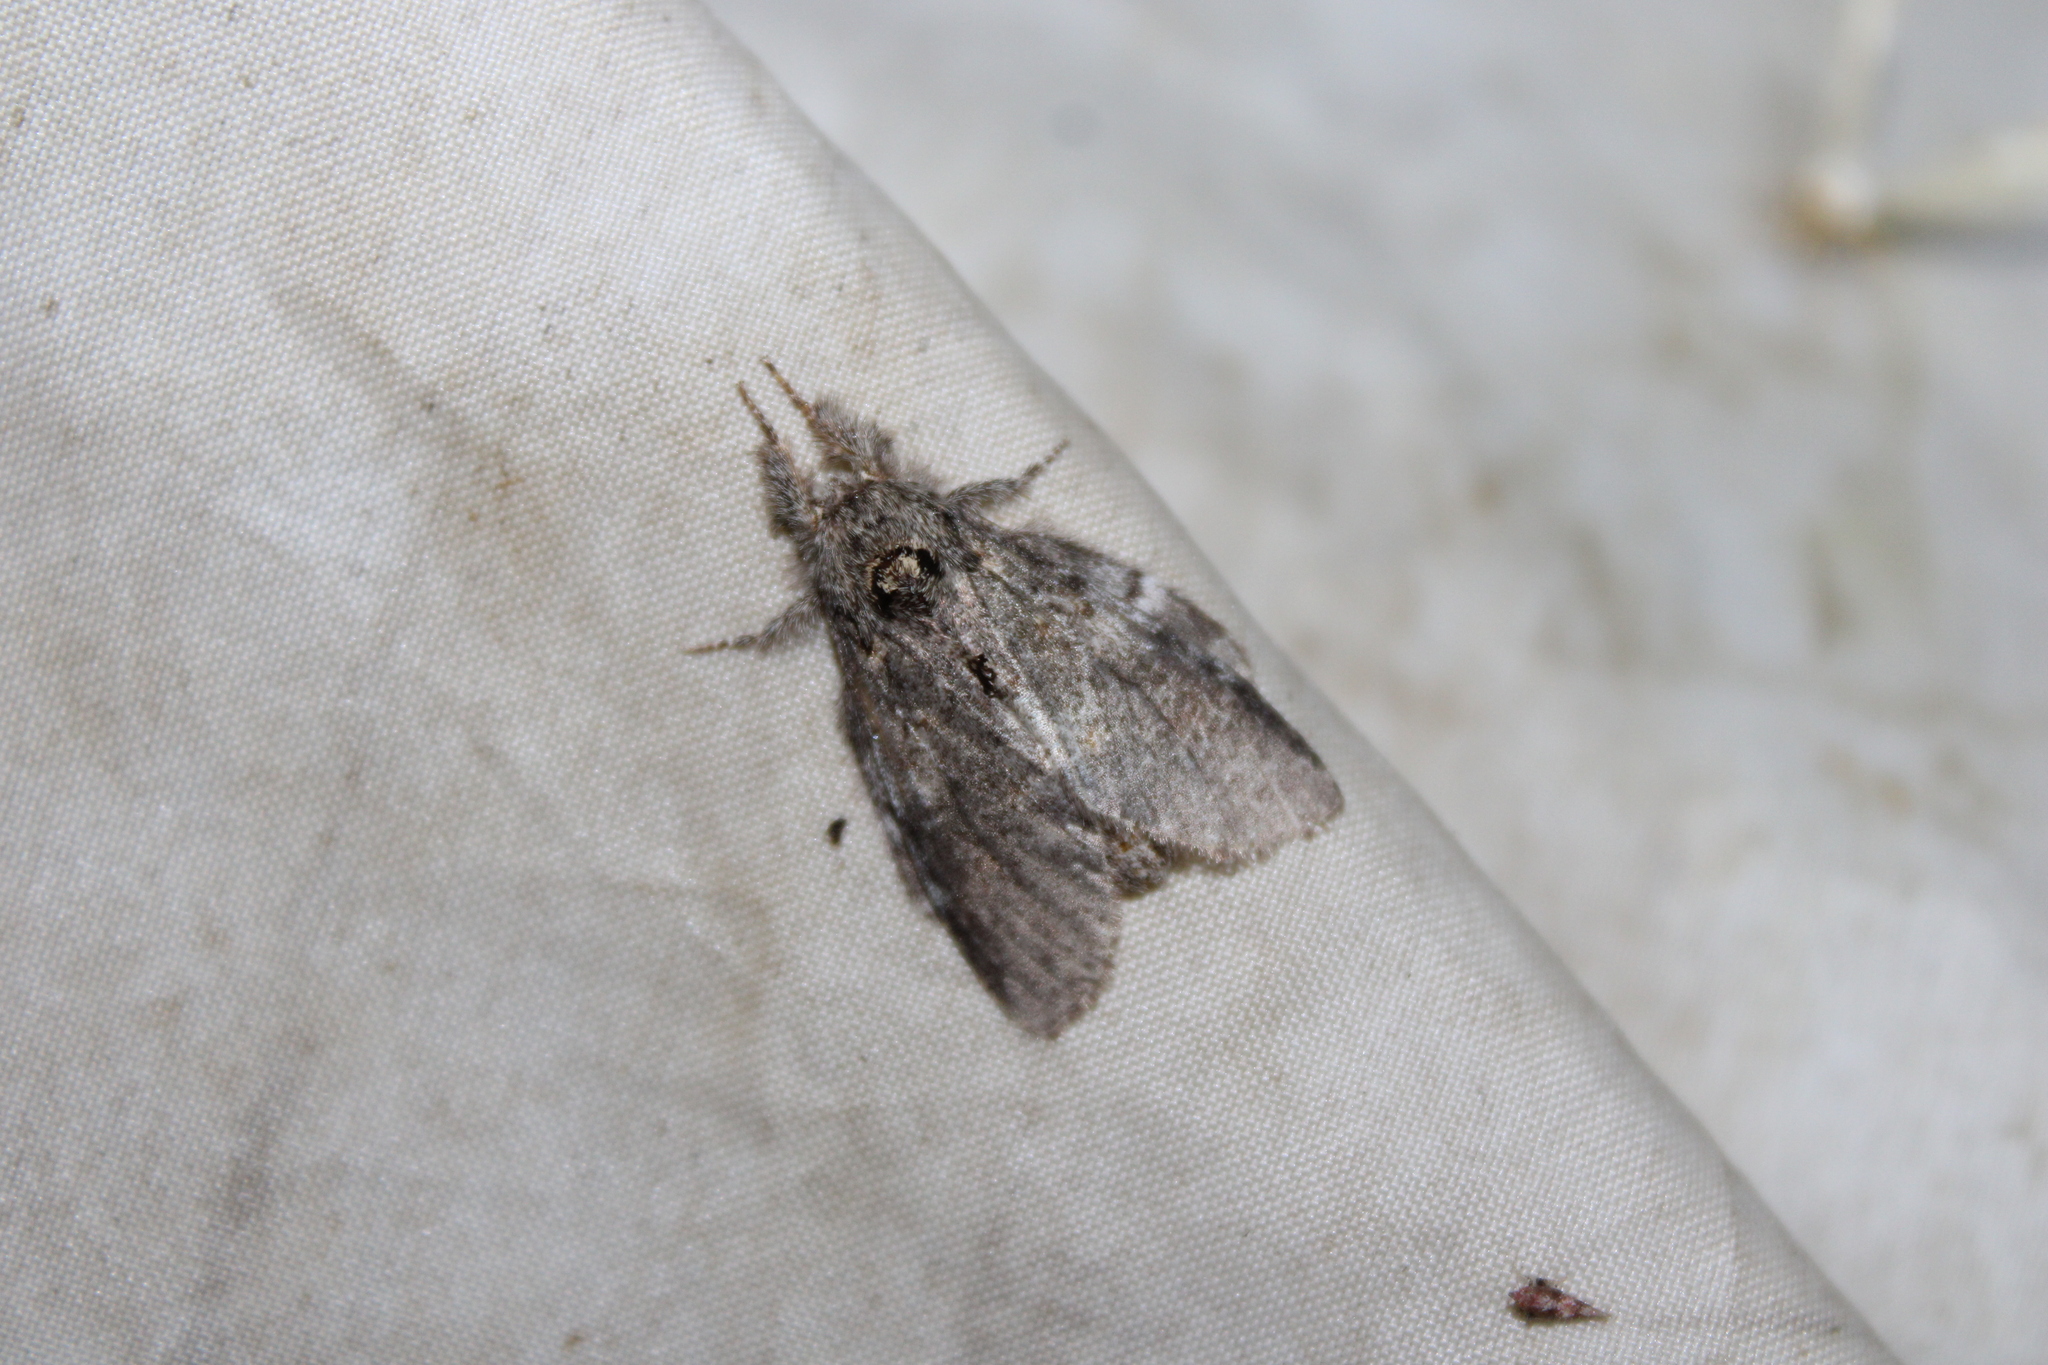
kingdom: Animalia
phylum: Arthropoda
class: Insecta
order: Lepidoptera
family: Notodontidae
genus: Peridea
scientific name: Peridea angulosa
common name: Angulose prominent
